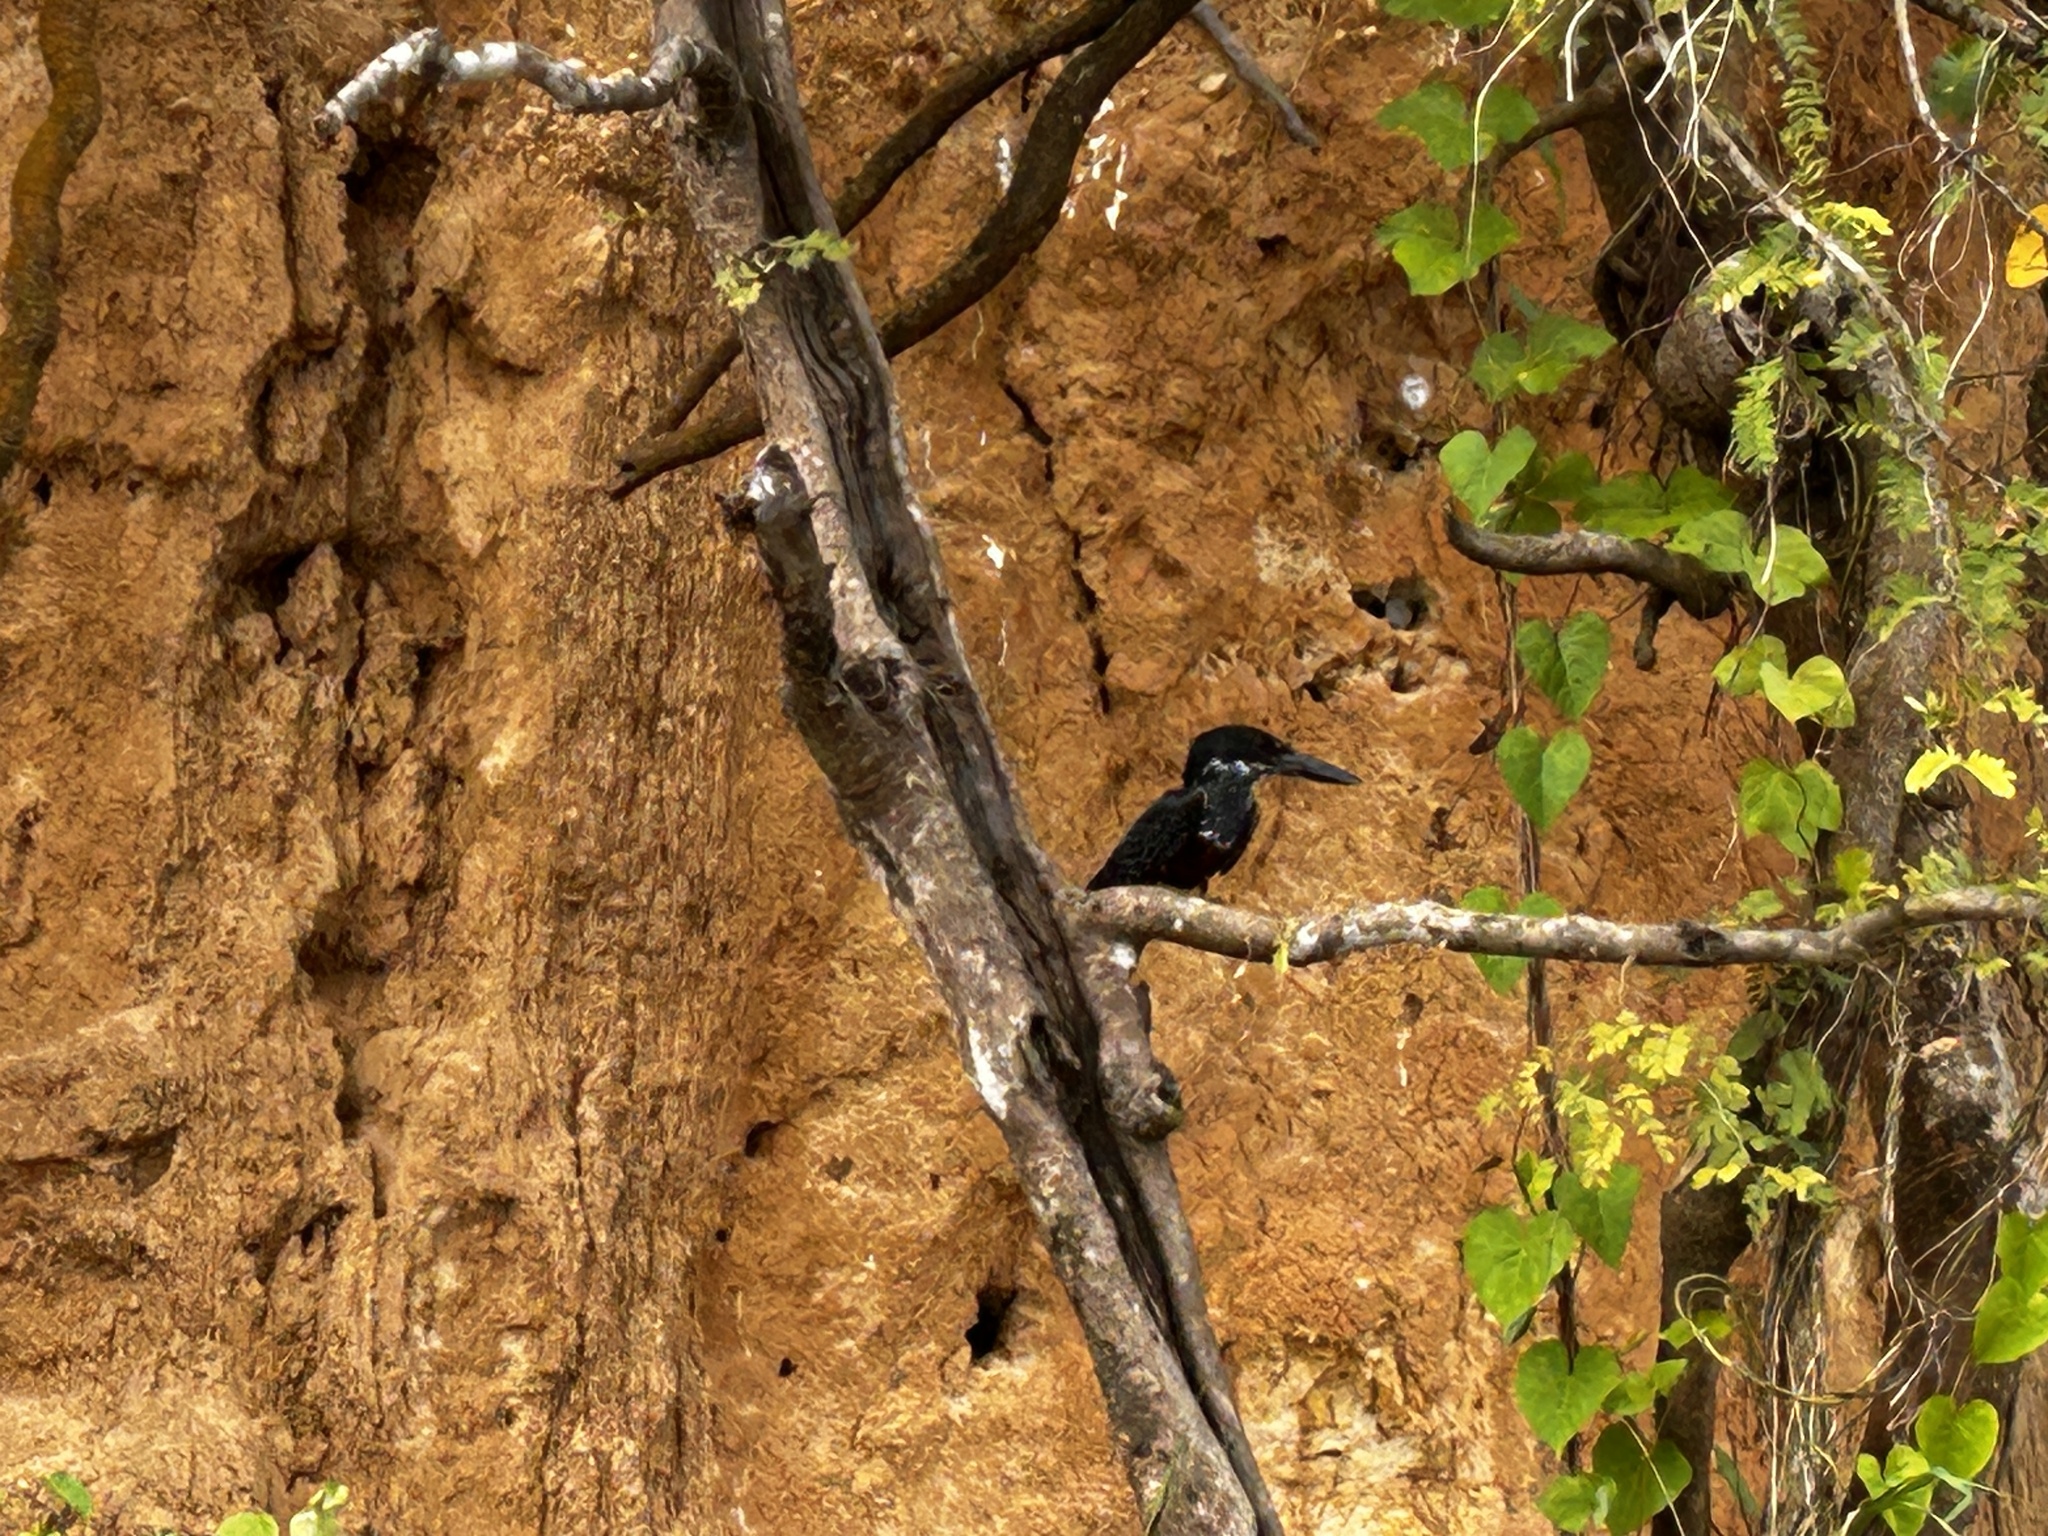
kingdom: Animalia
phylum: Chordata
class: Aves
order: Coraciiformes
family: Alcedinidae
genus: Megaceryle
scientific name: Megaceryle maxima
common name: Giant kingfisher
